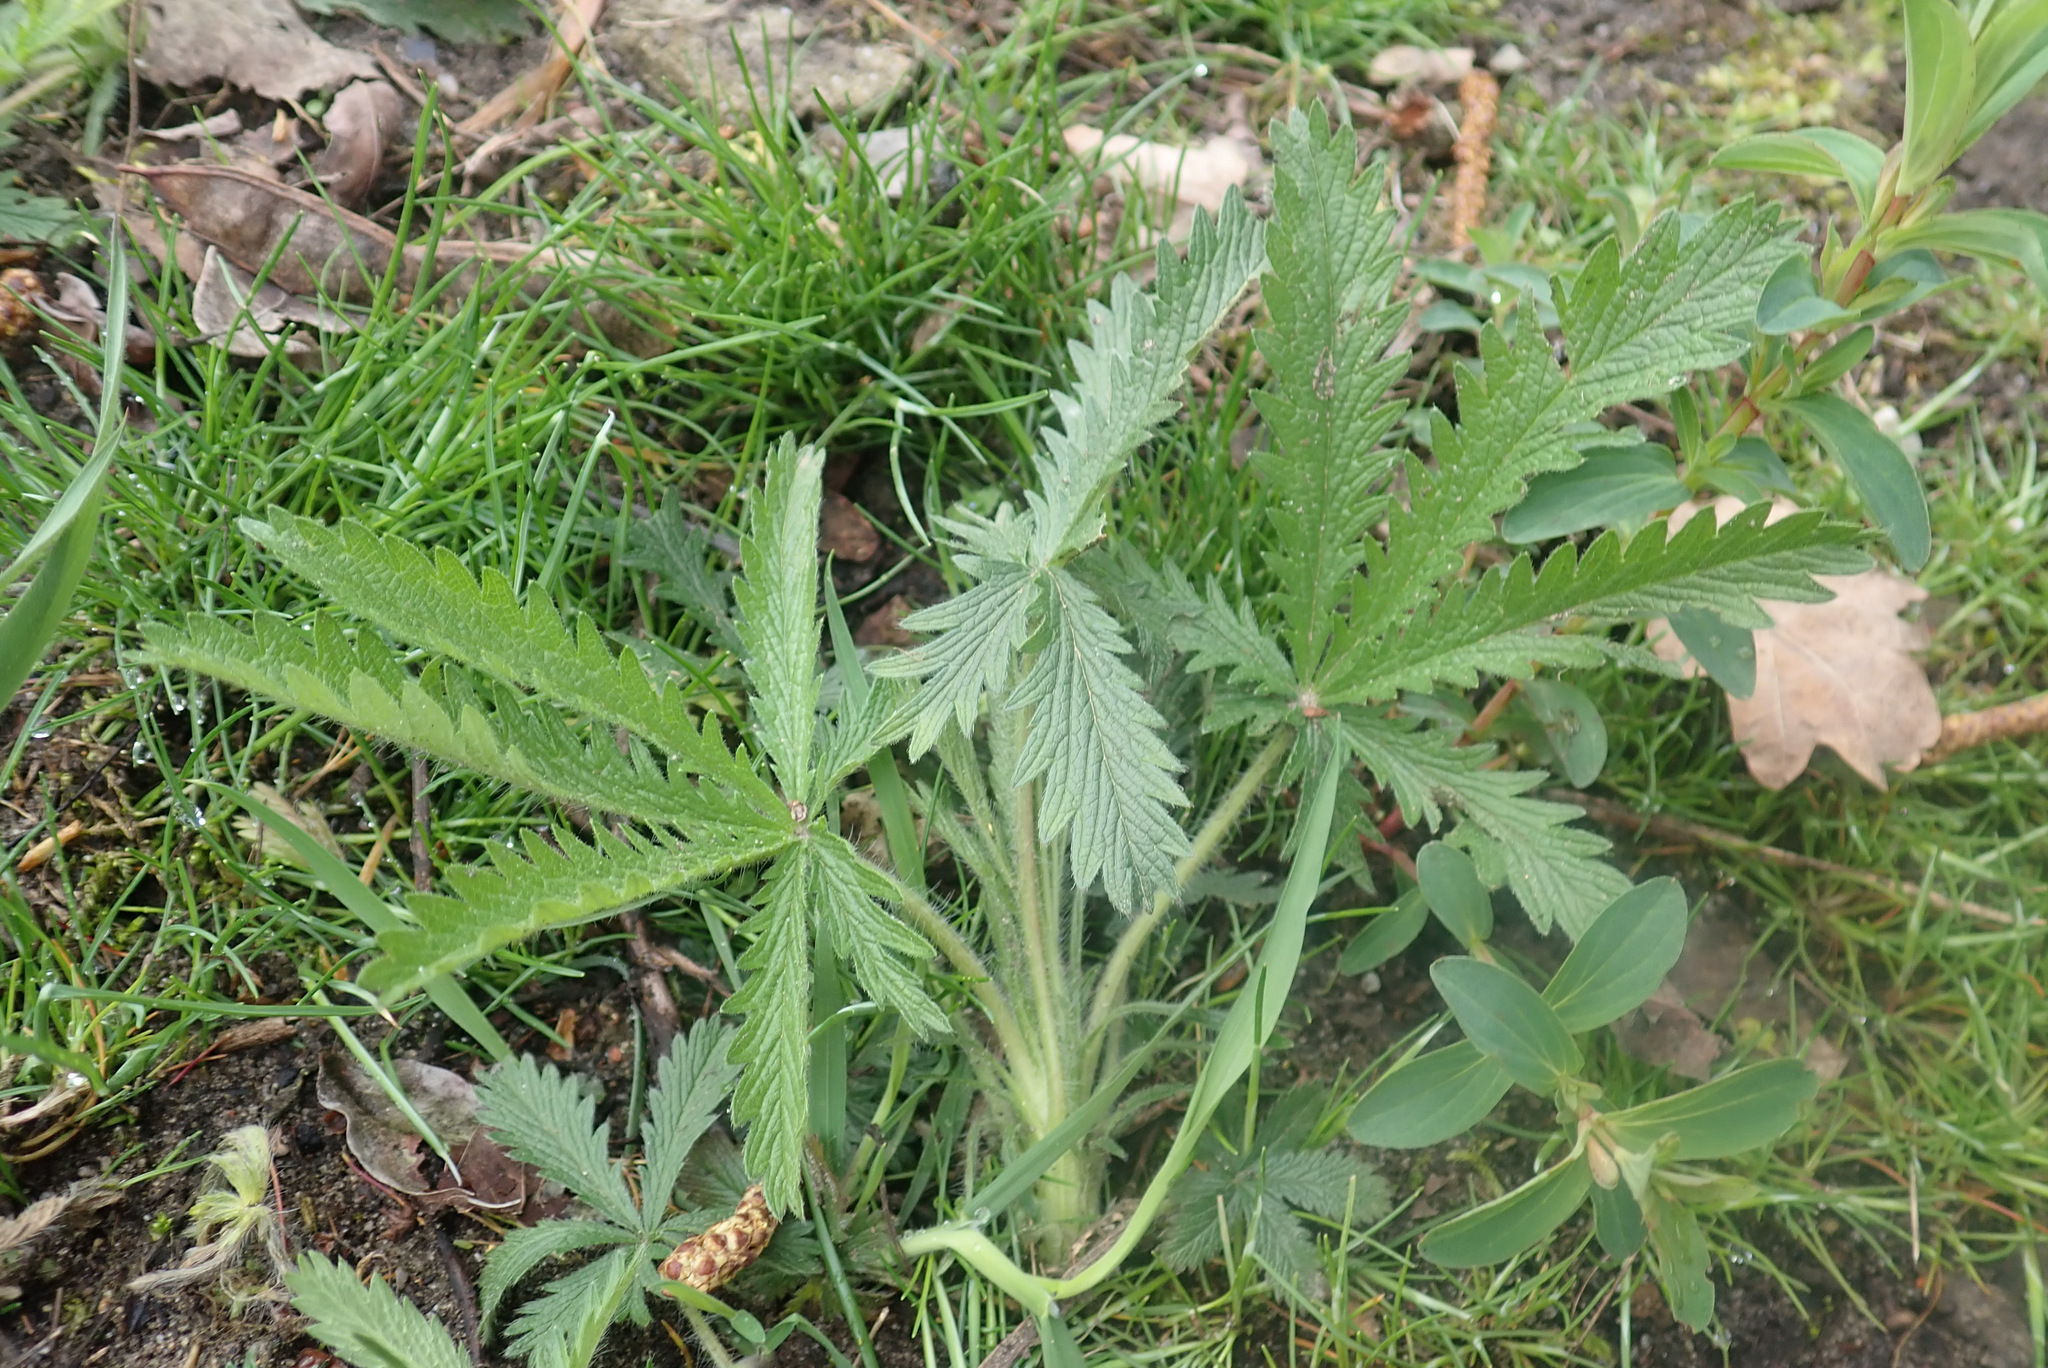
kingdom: Plantae
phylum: Tracheophyta
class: Magnoliopsida
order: Rosales
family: Rosaceae
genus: Potentilla
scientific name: Potentilla recta
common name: Sulphur cinquefoil
